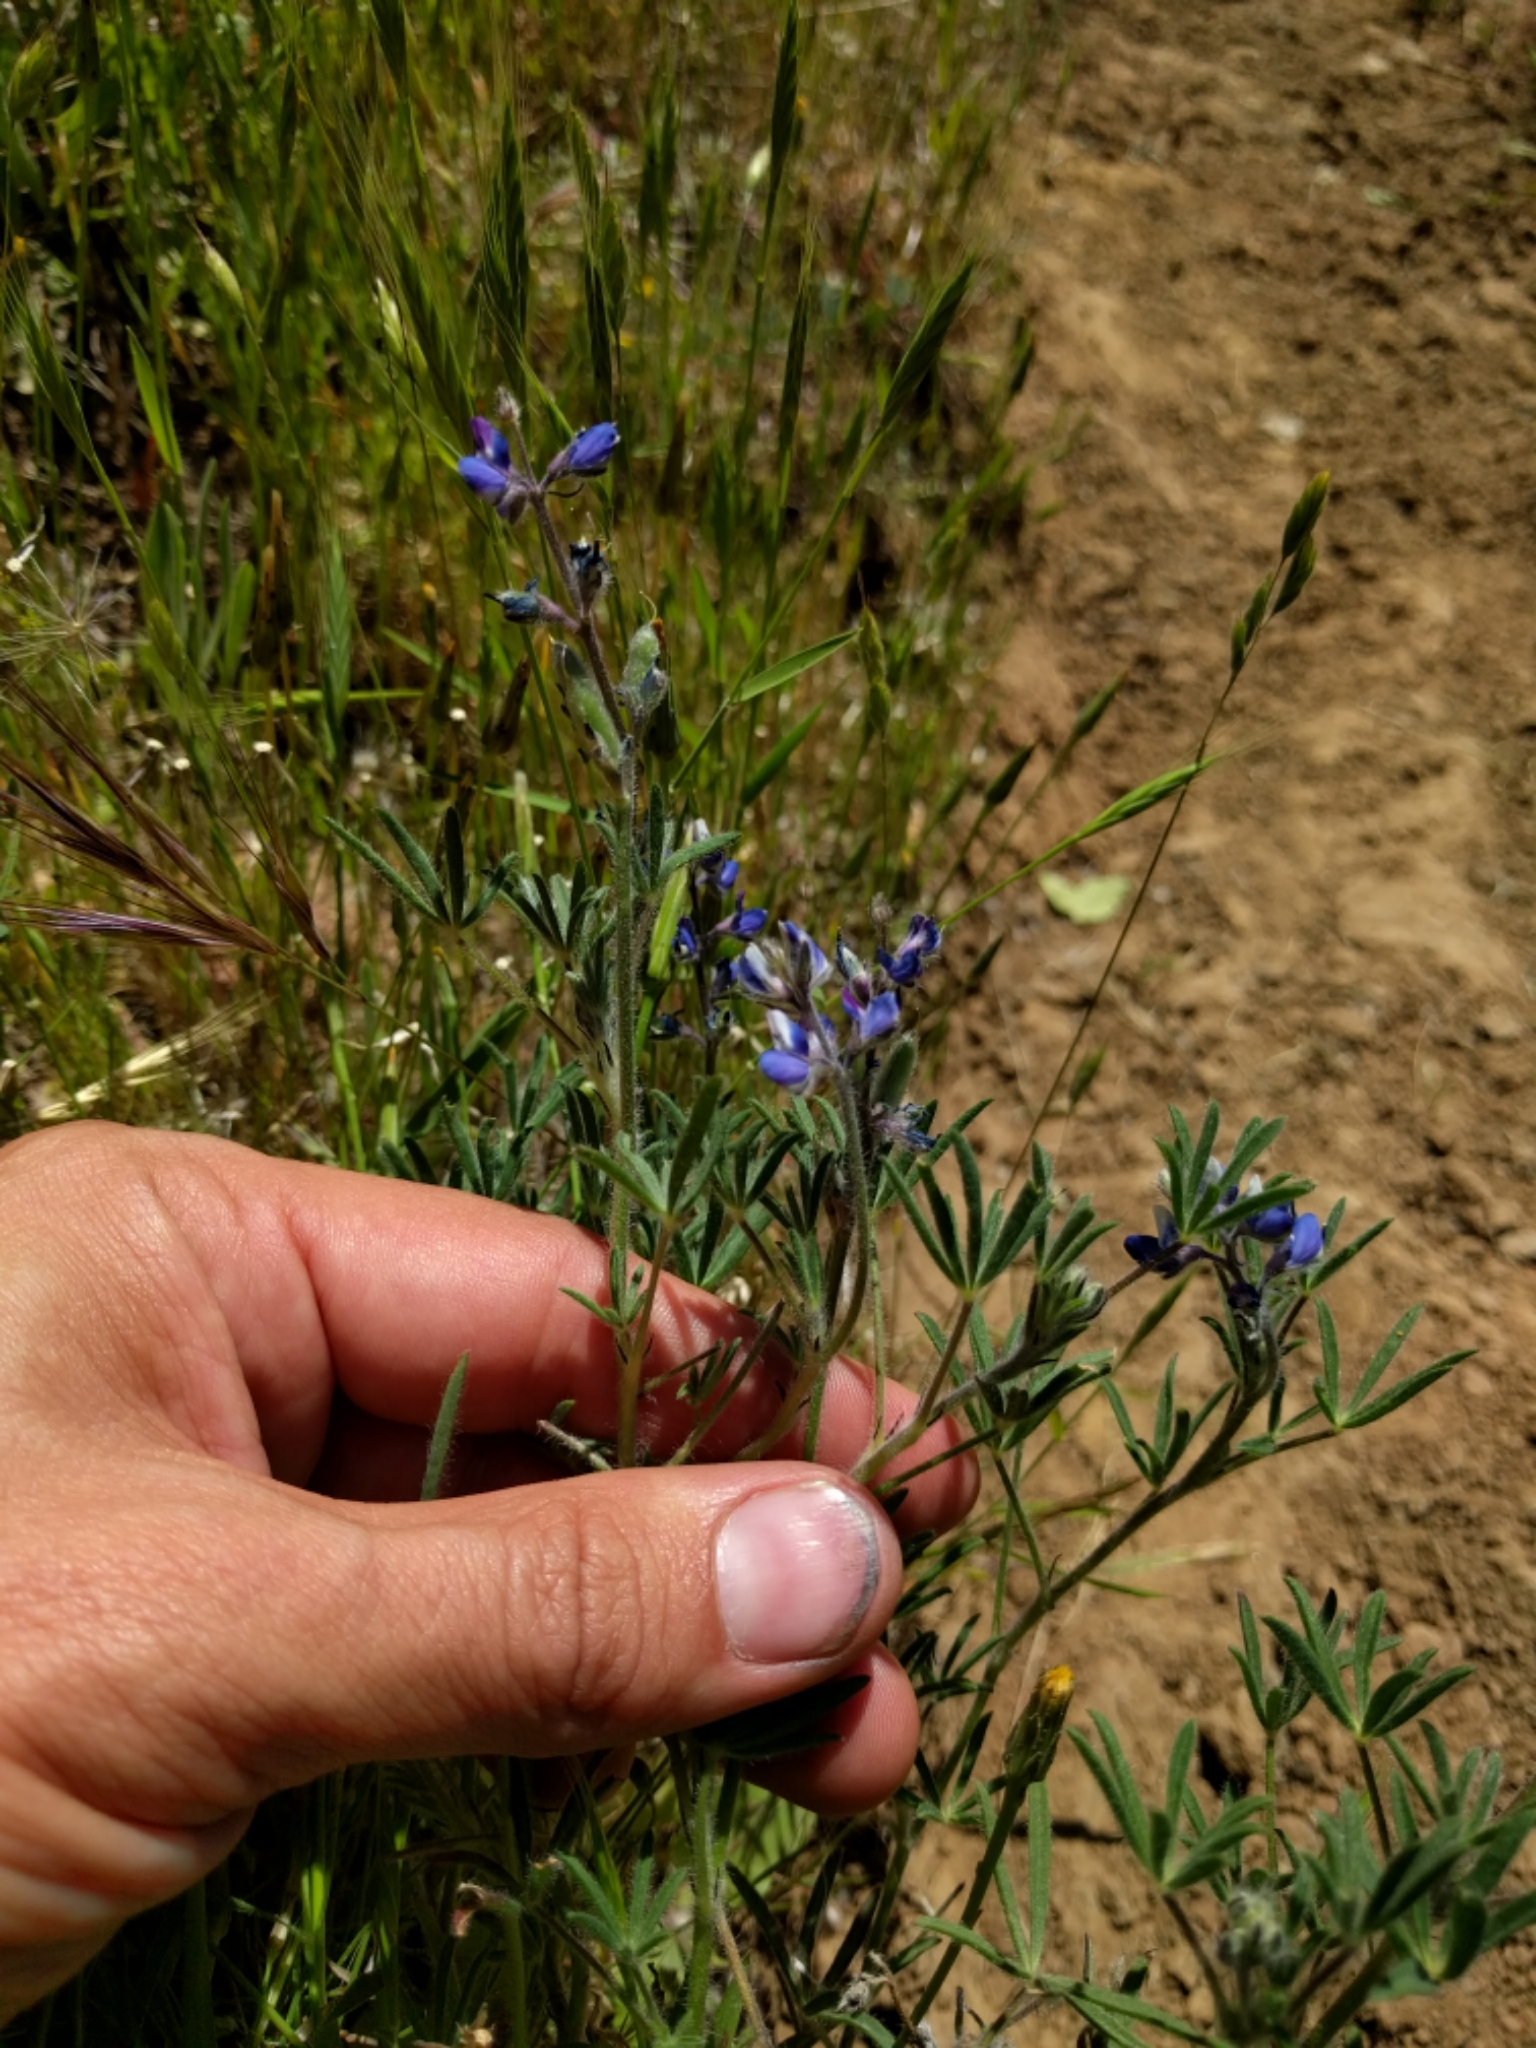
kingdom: Plantae
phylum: Tracheophyta
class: Magnoliopsida
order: Fabales
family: Fabaceae
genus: Lupinus
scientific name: Lupinus bicolor
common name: Miniature lupine
